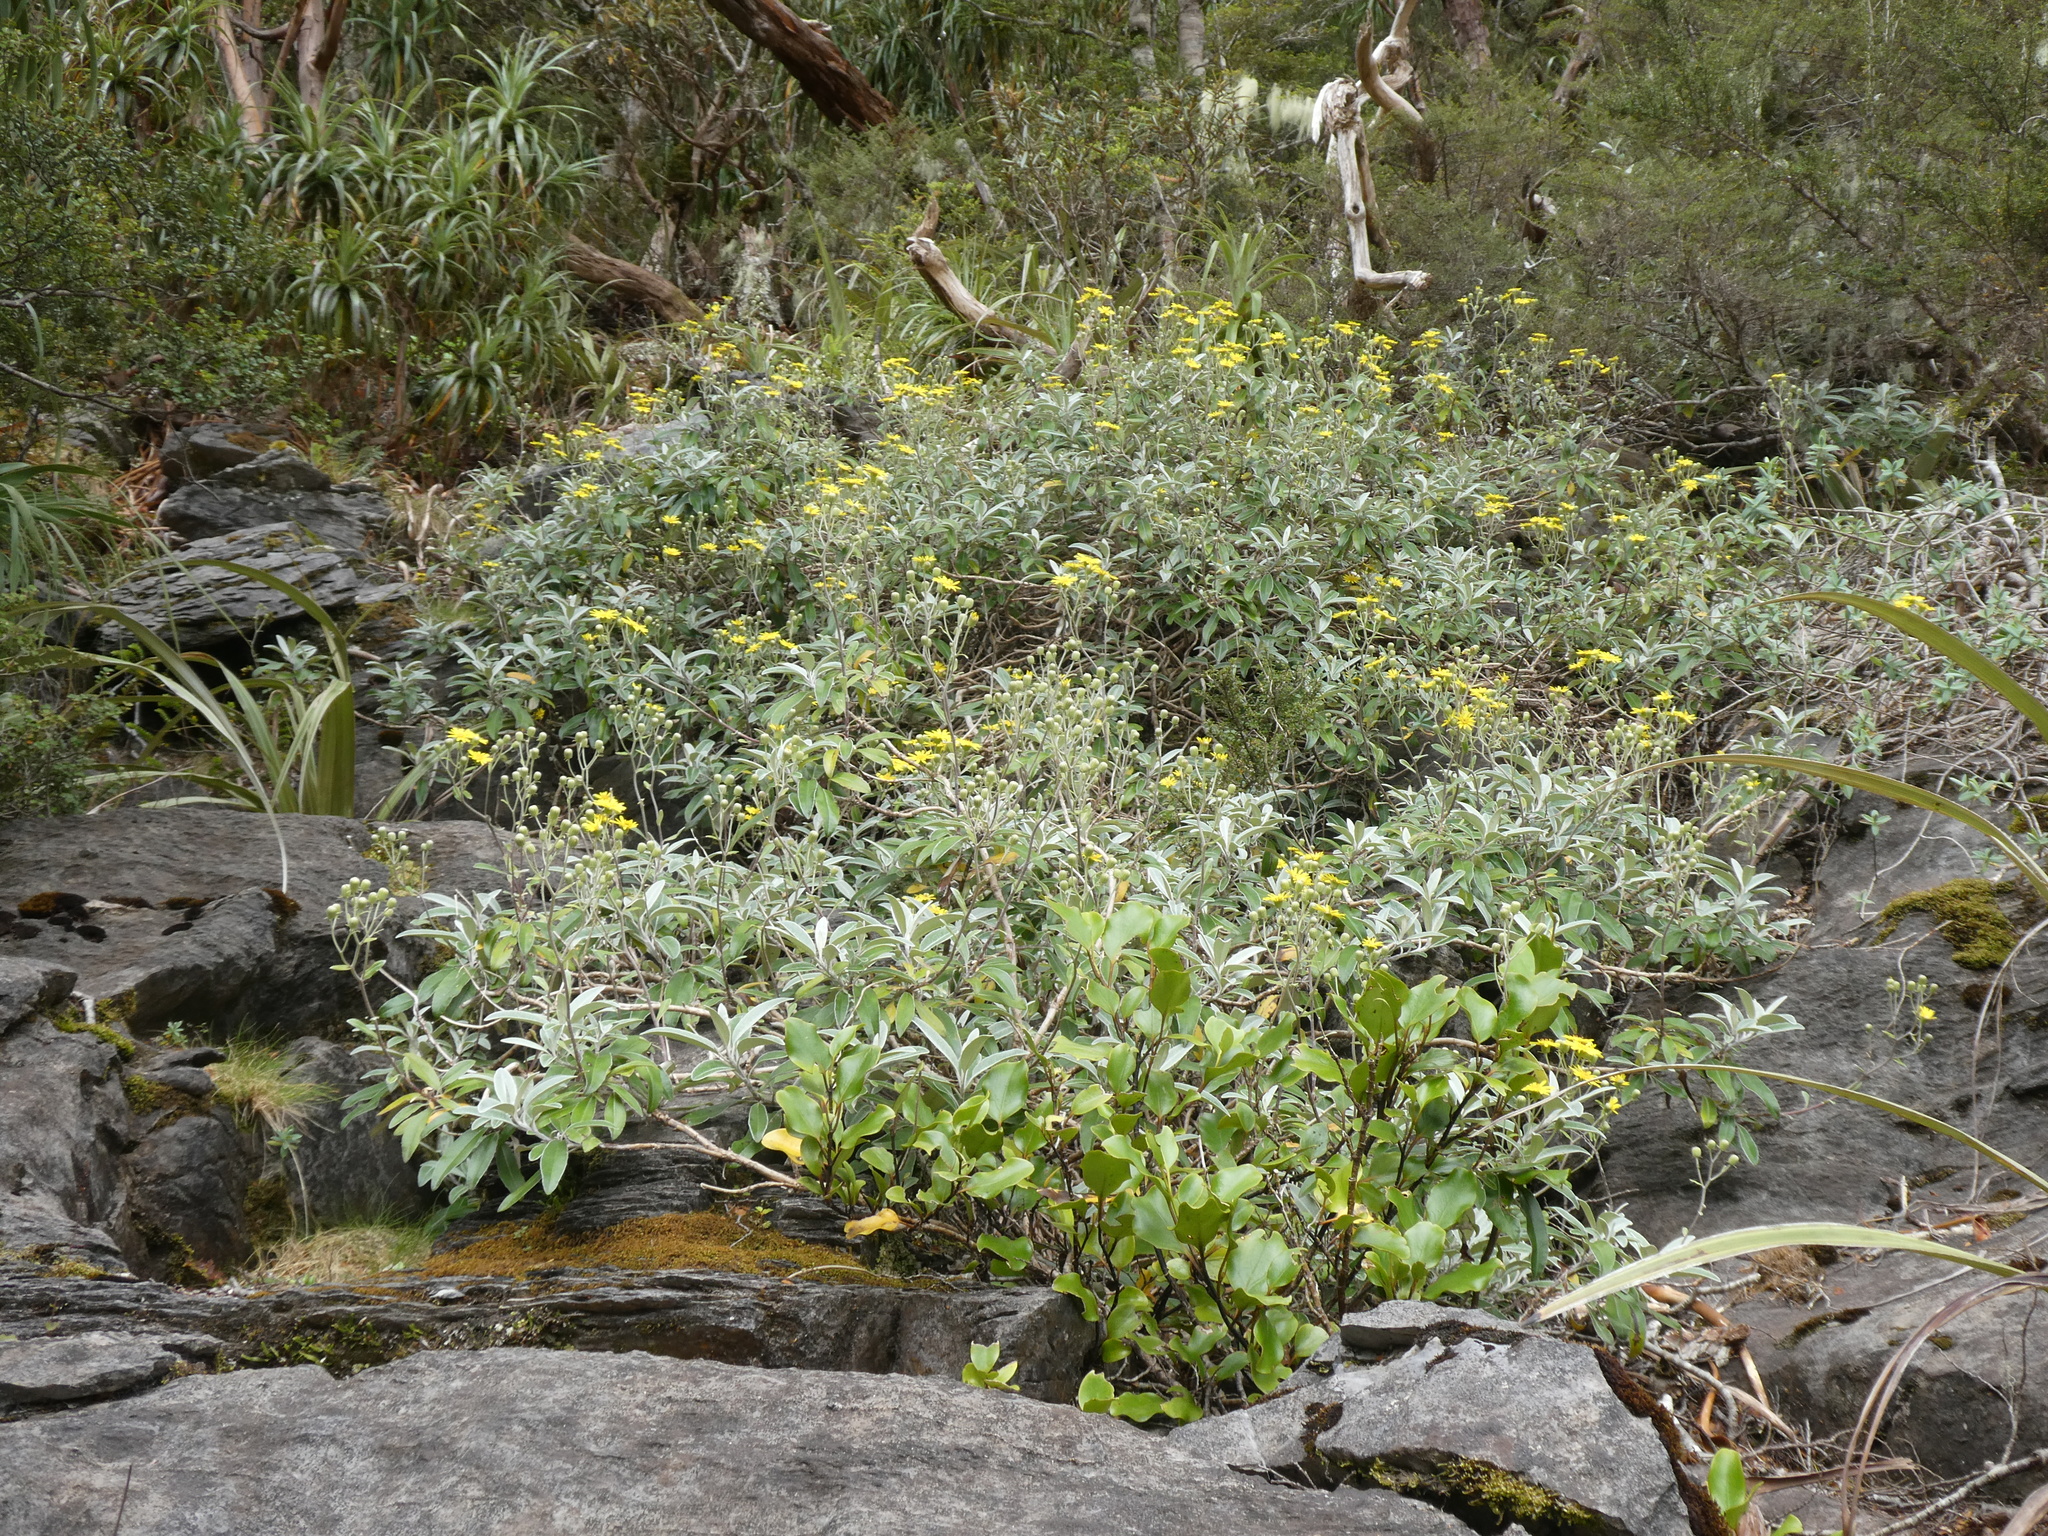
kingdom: Plantae
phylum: Tracheophyta
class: Magnoliopsida
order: Asterales
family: Asteraceae
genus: Brachyglottis
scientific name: Brachyglottis laxifolia
